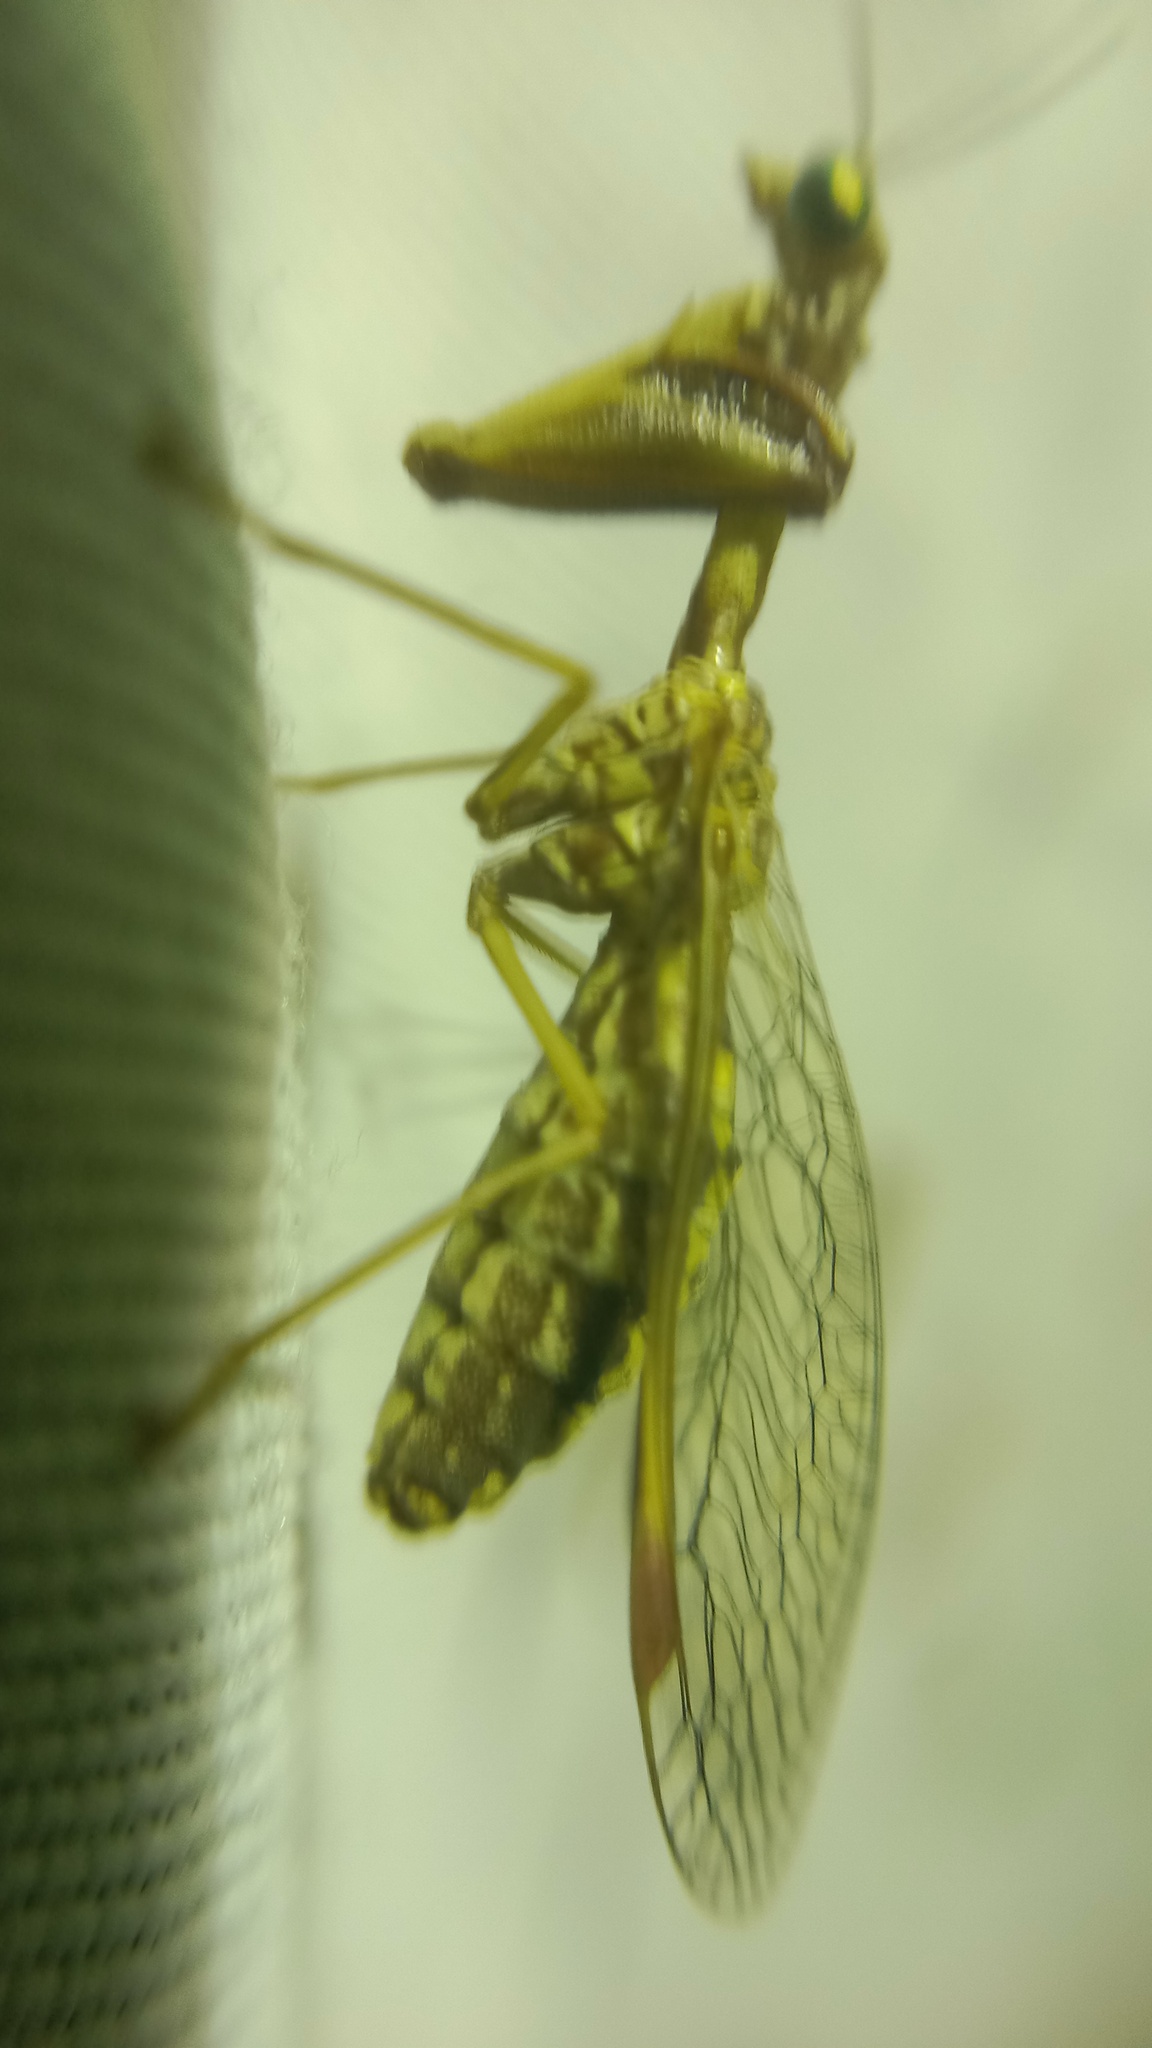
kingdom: Animalia
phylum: Arthropoda
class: Insecta
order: Neuroptera
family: Mantispidae
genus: Mantispa
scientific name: Mantispa styriaca
